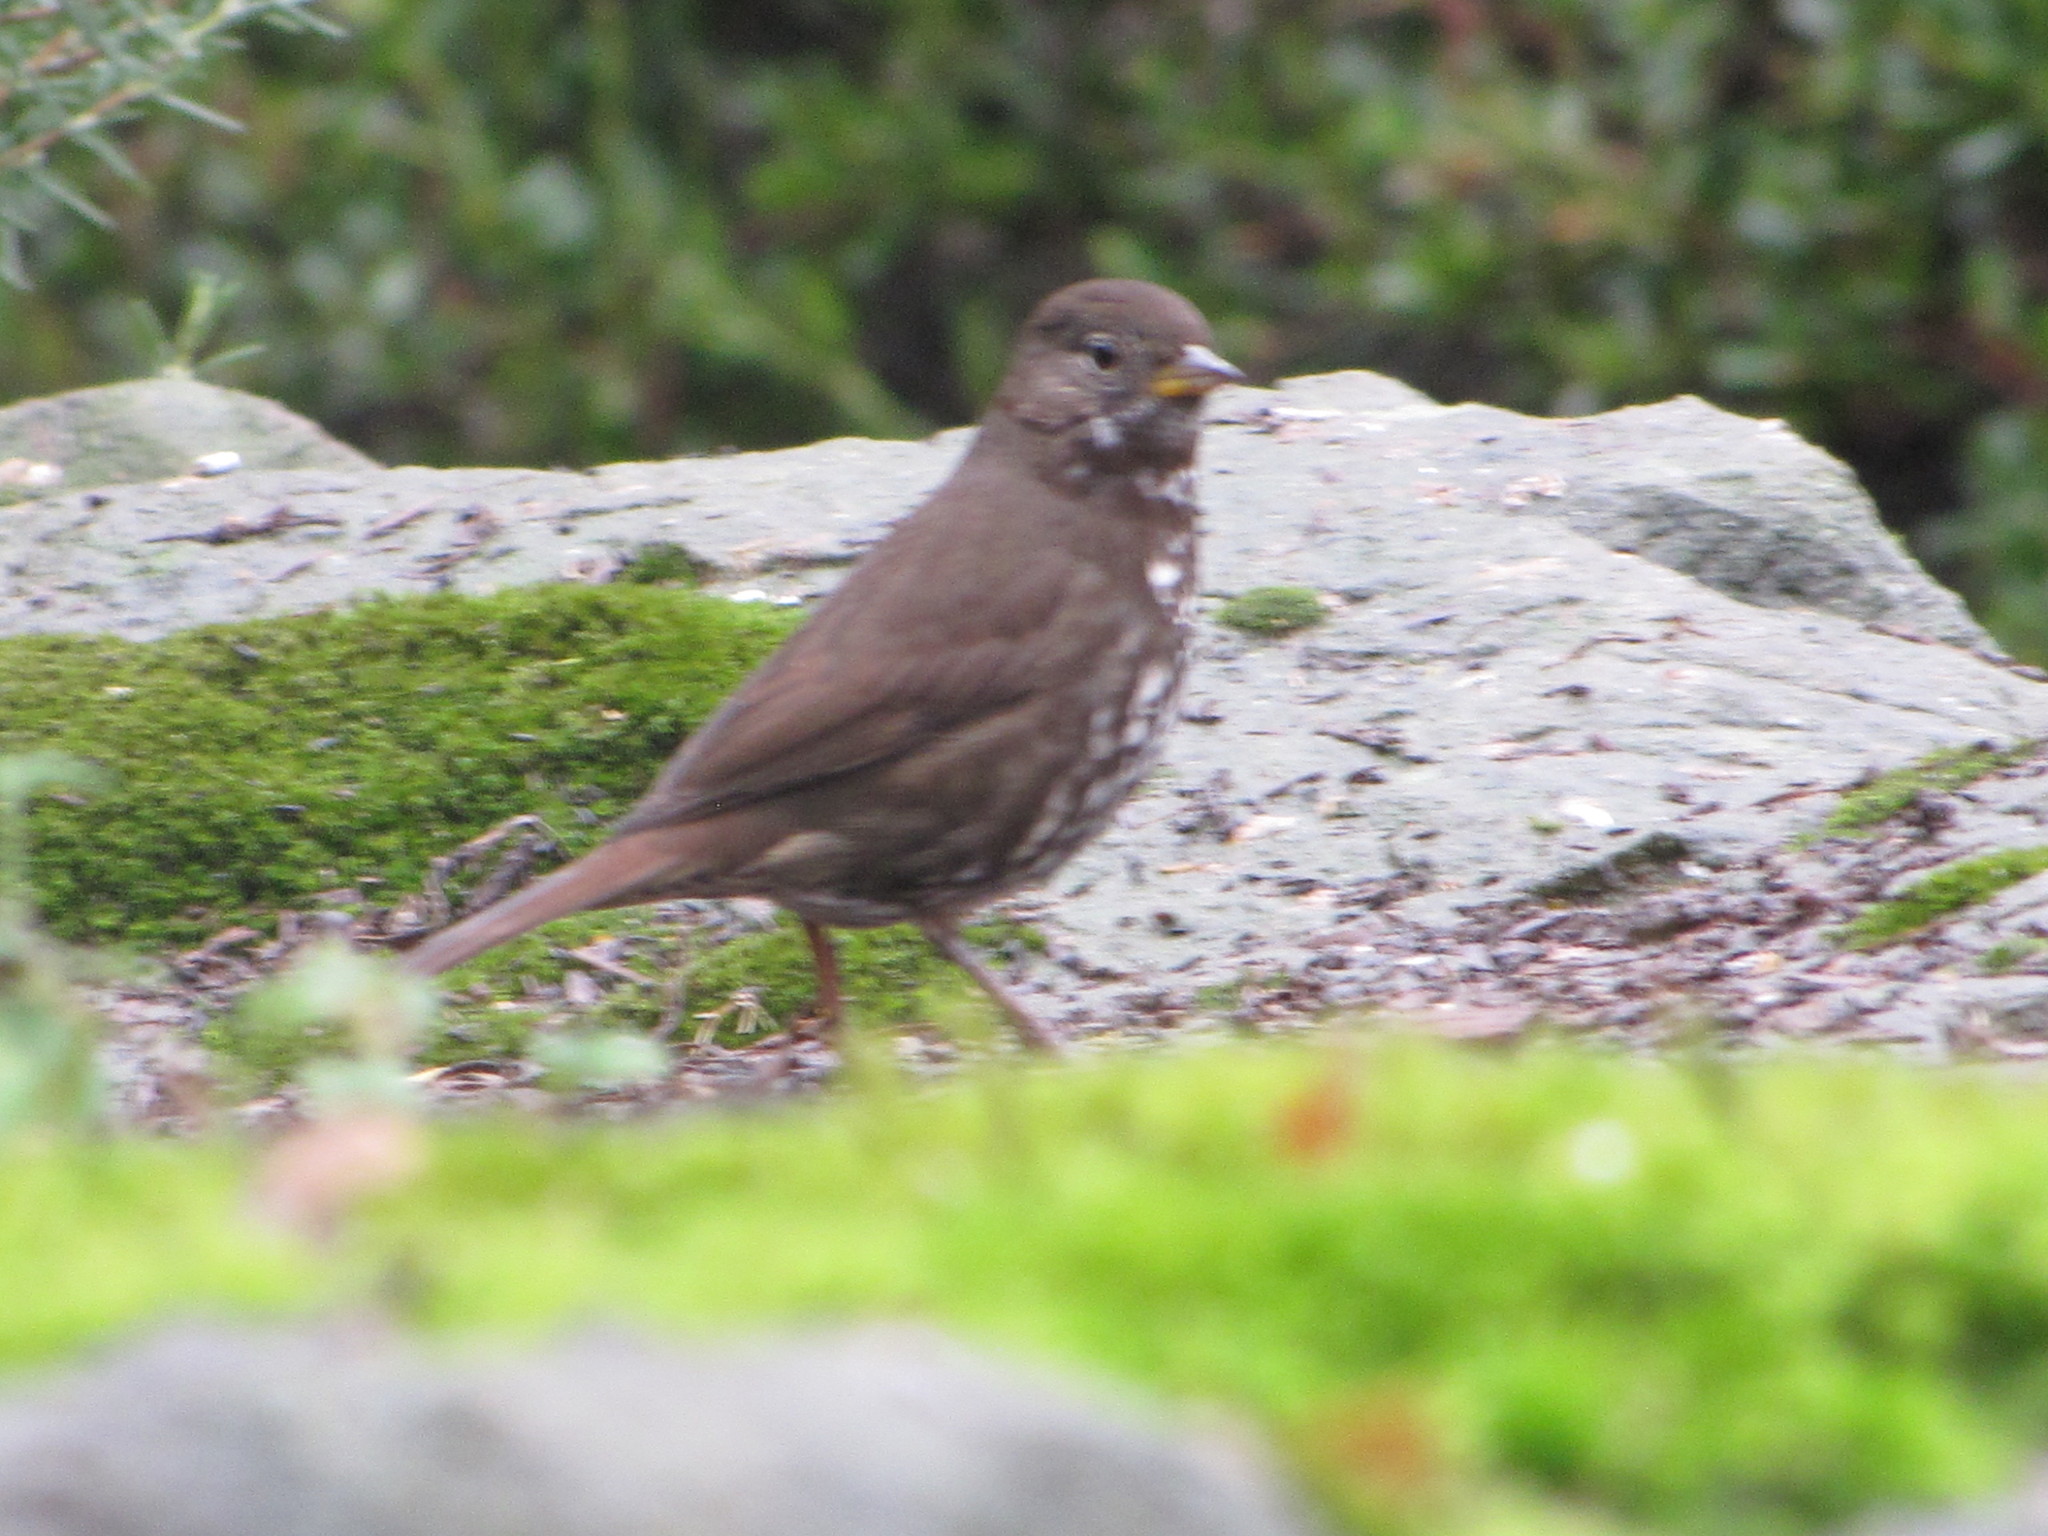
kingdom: Animalia
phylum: Chordata
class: Aves
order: Passeriformes
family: Passerellidae
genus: Passerella
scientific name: Passerella iliaca
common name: Fox sparrow
